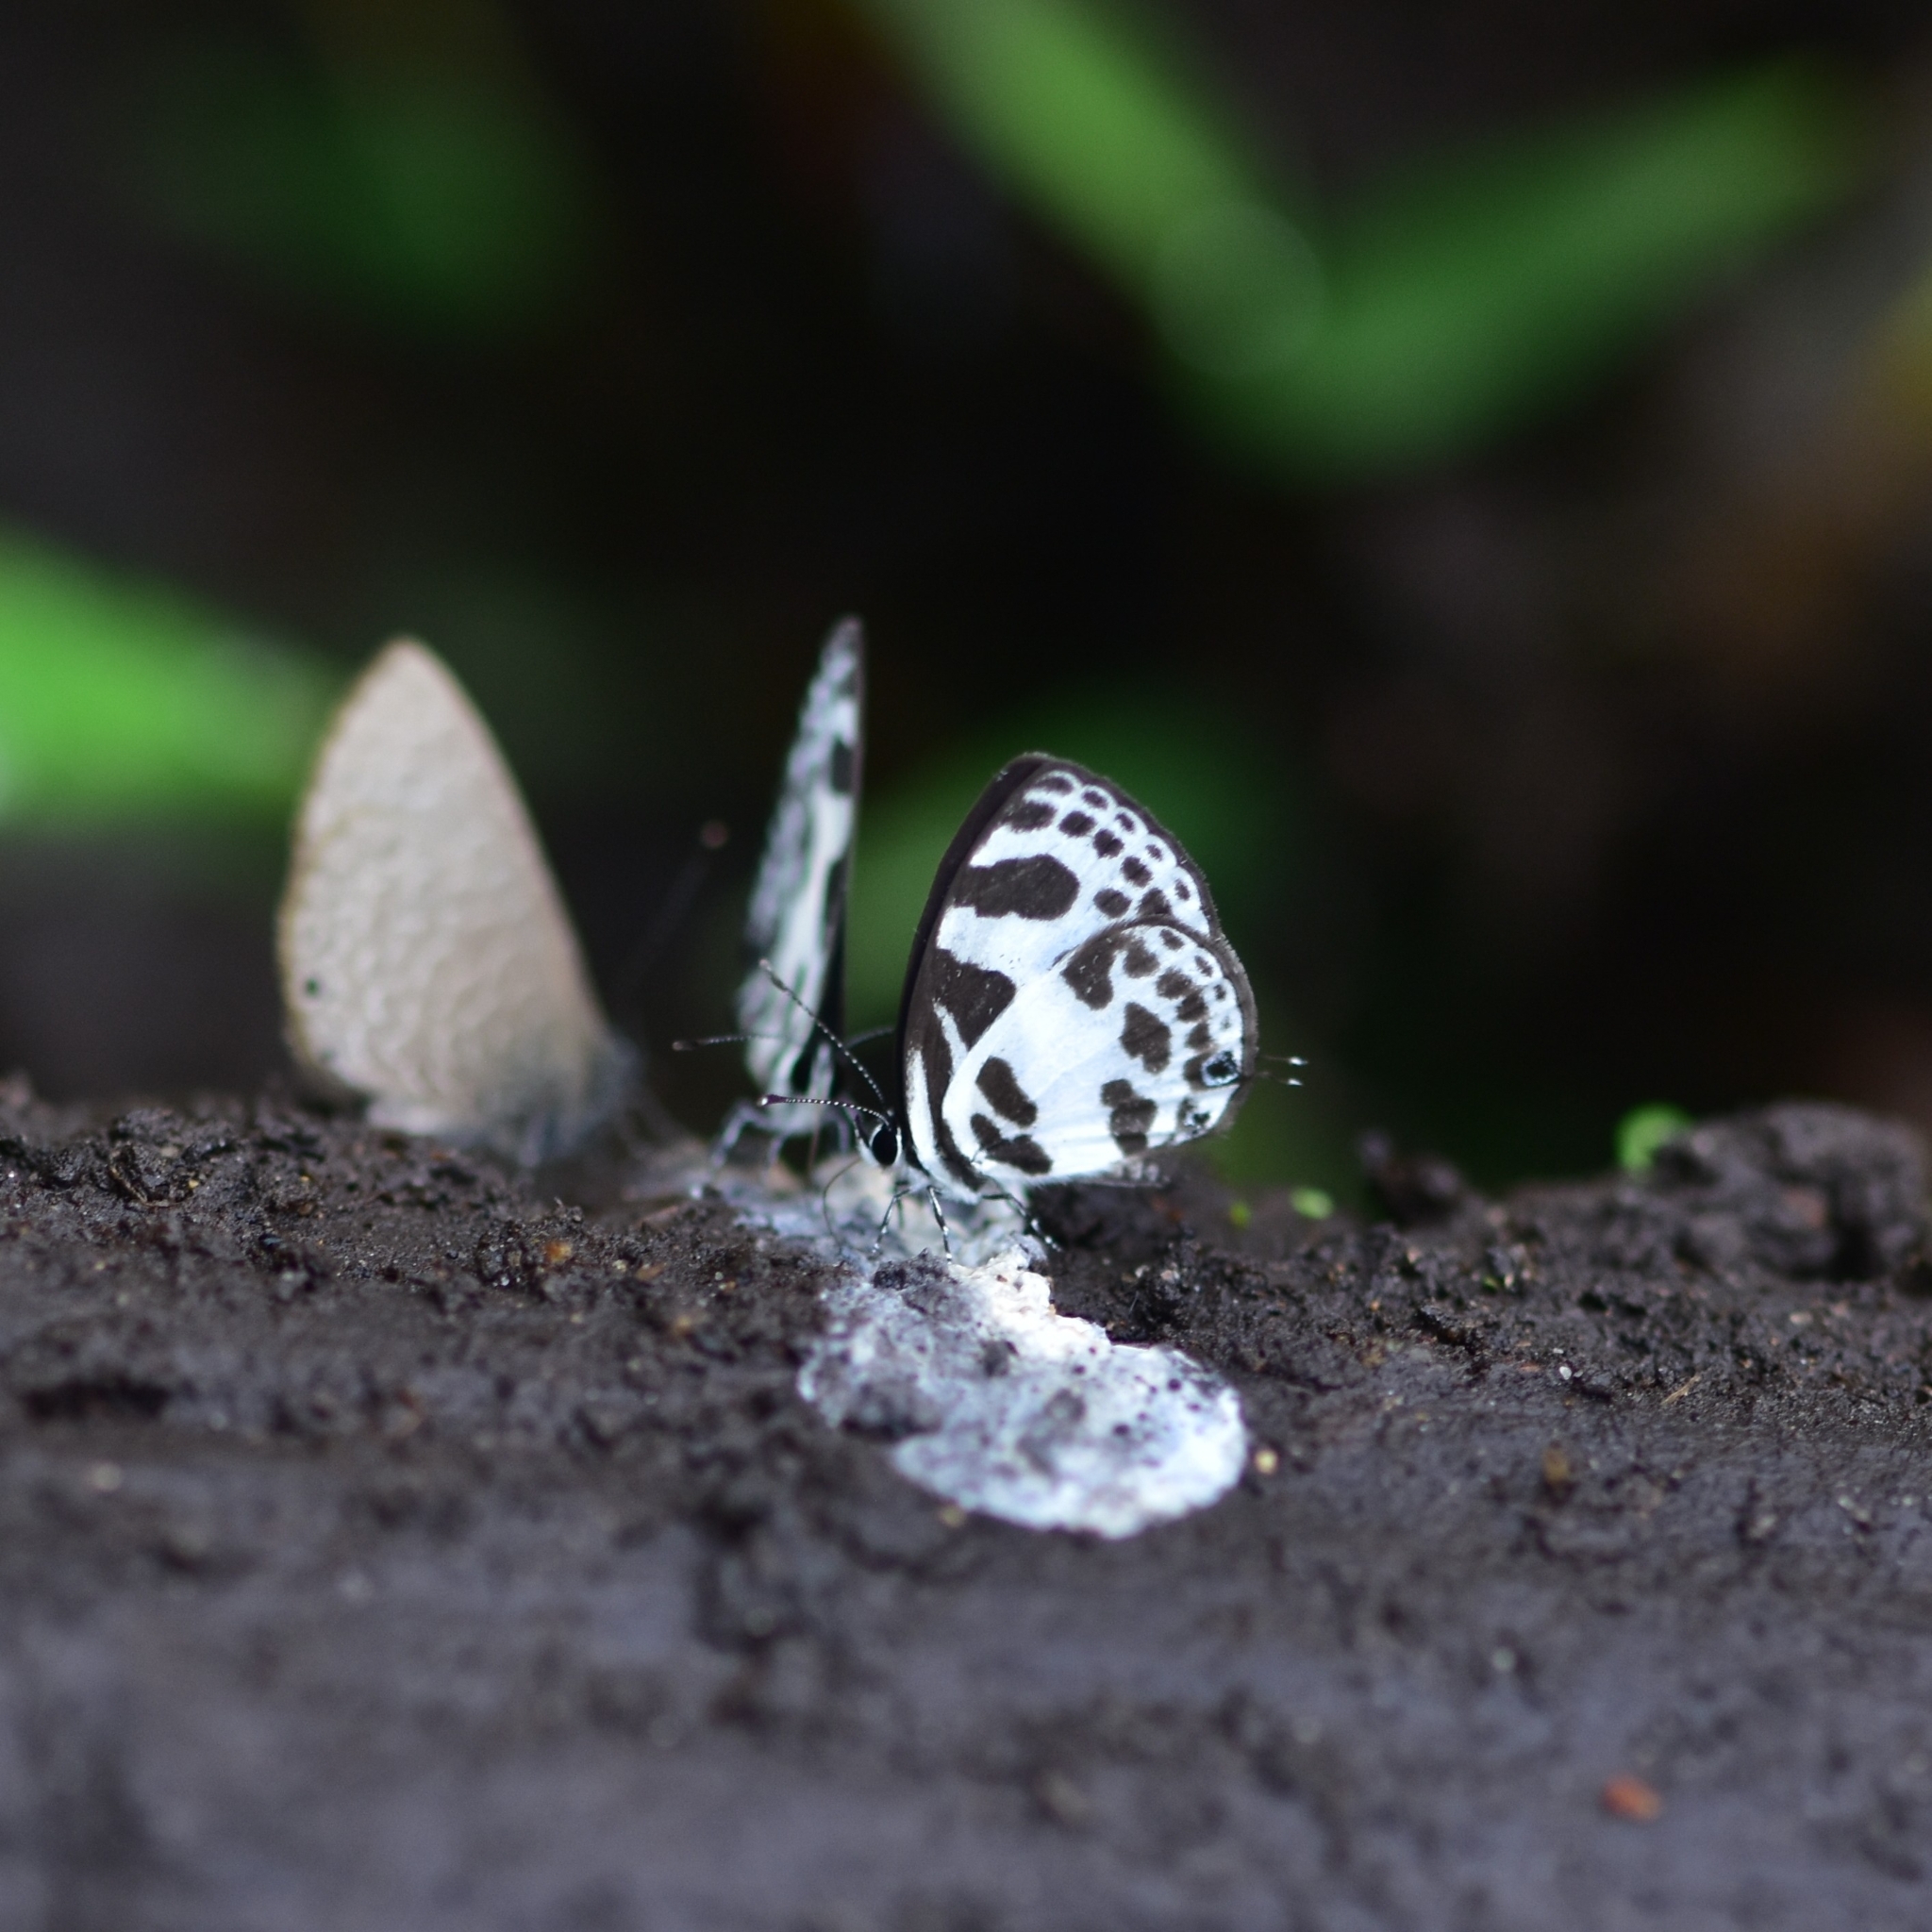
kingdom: Animalia
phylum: Arthropoda
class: Insecta
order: Lepidoptera
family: Lycaenidae
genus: Discolampa
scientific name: Discolampa ethion
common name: Banded blue pierrot
